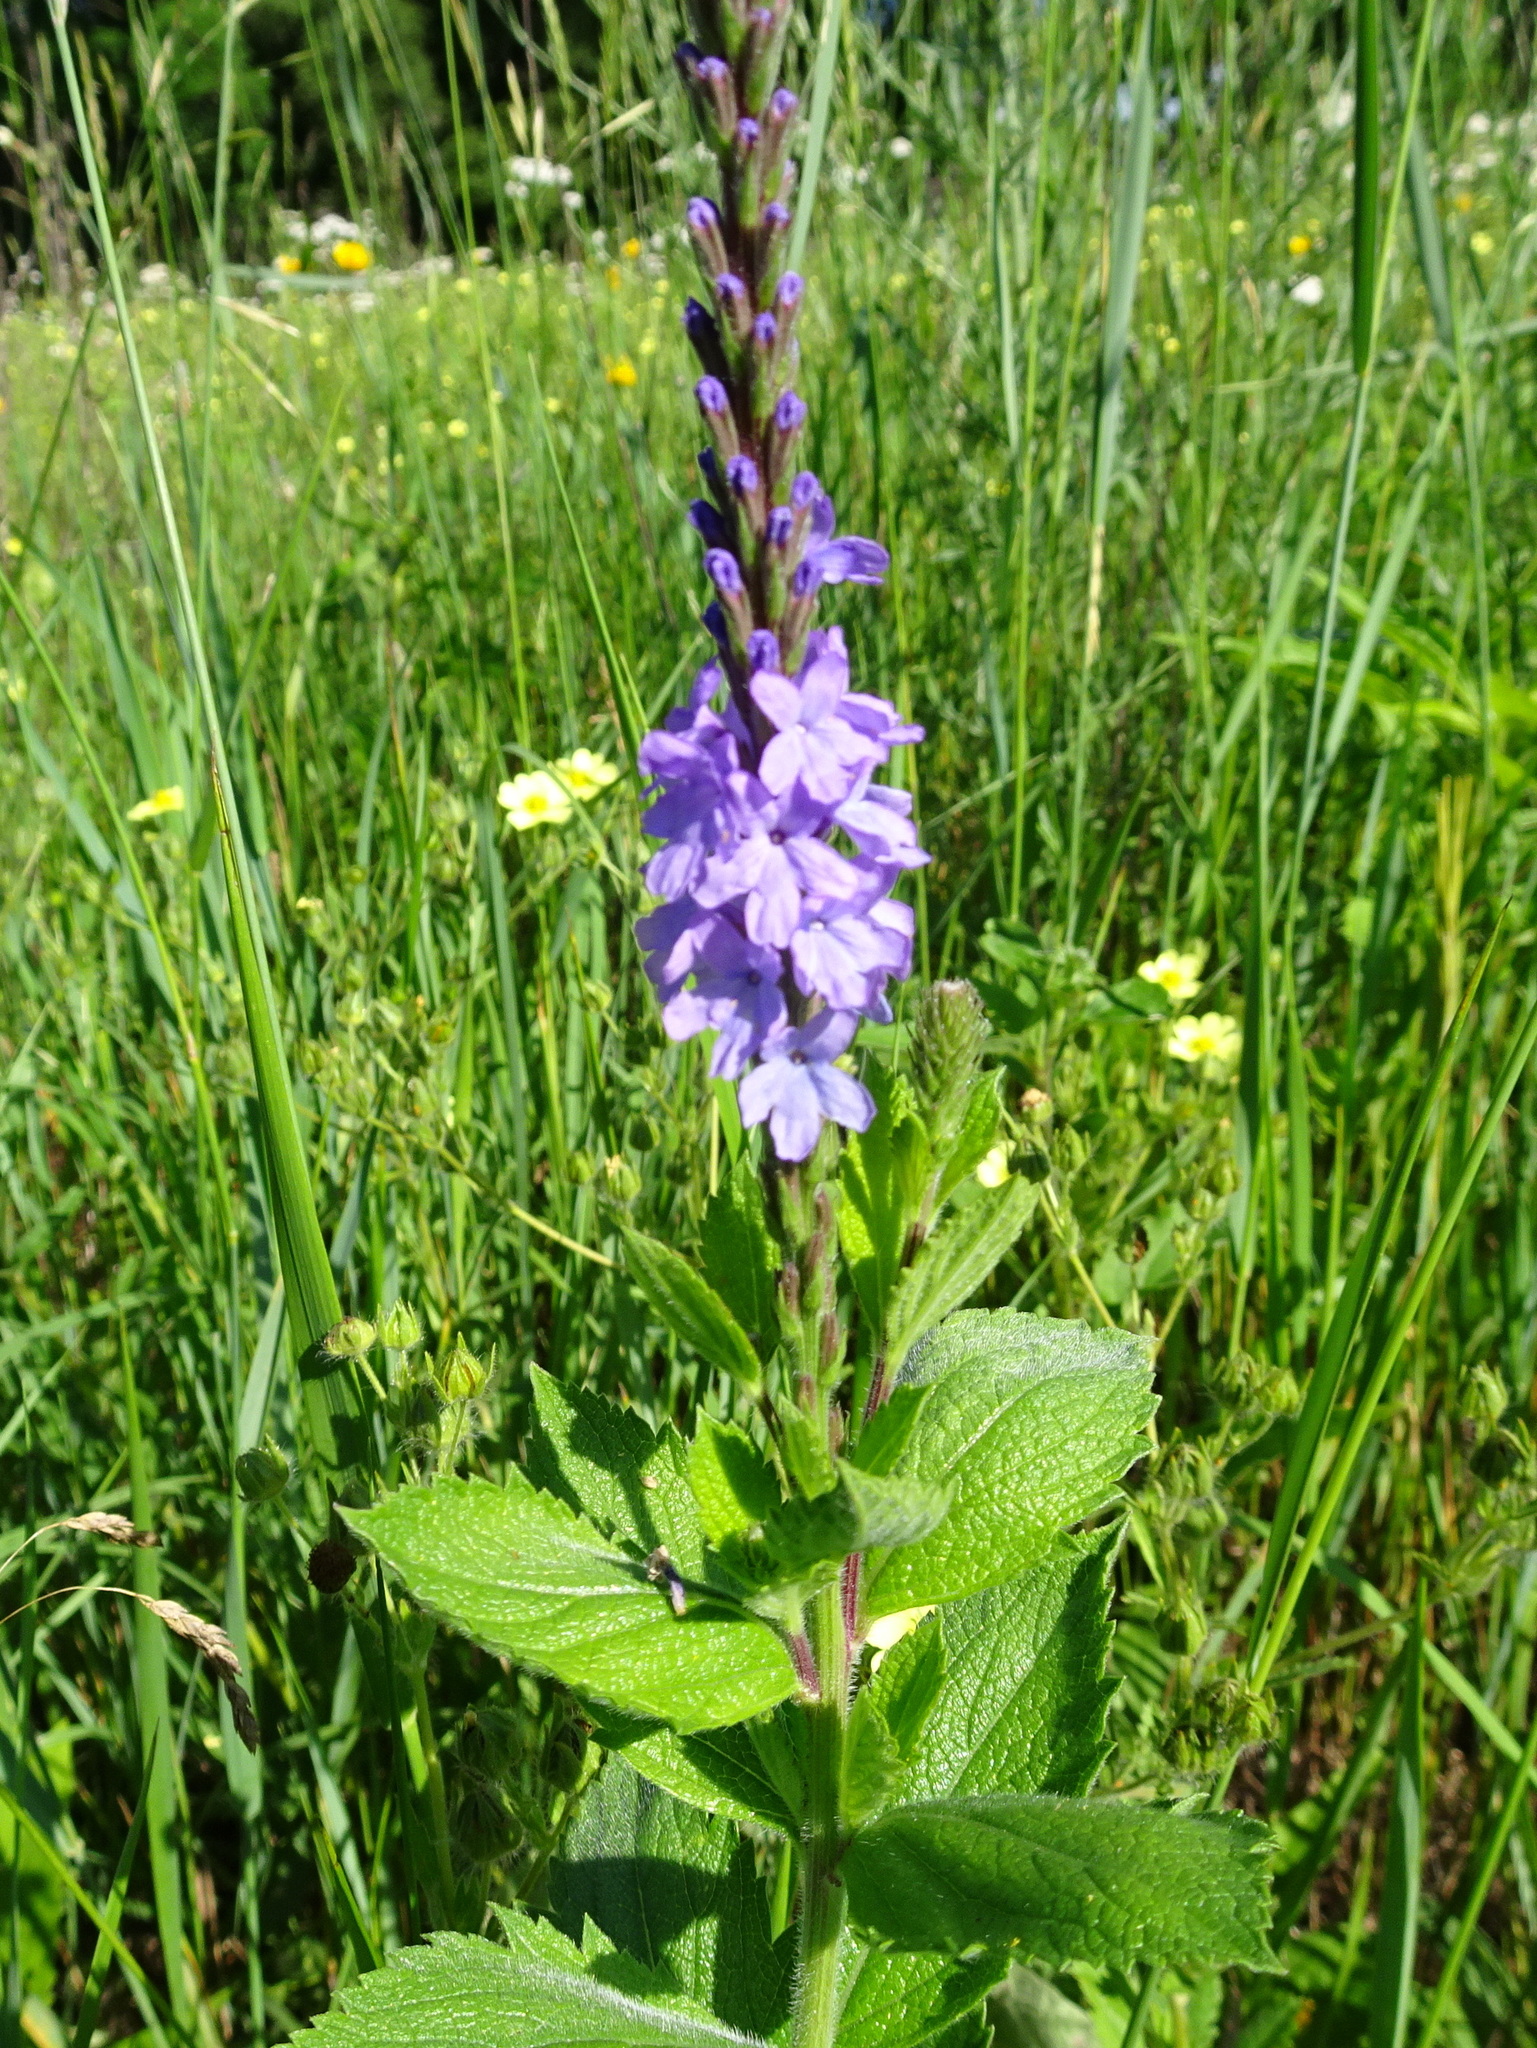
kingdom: Plantae
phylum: Tracheophyta
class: Magnoliopsida
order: Lamiales
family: Verbenaceae
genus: Verbena
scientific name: Verbena stricta
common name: Hoary vervain
